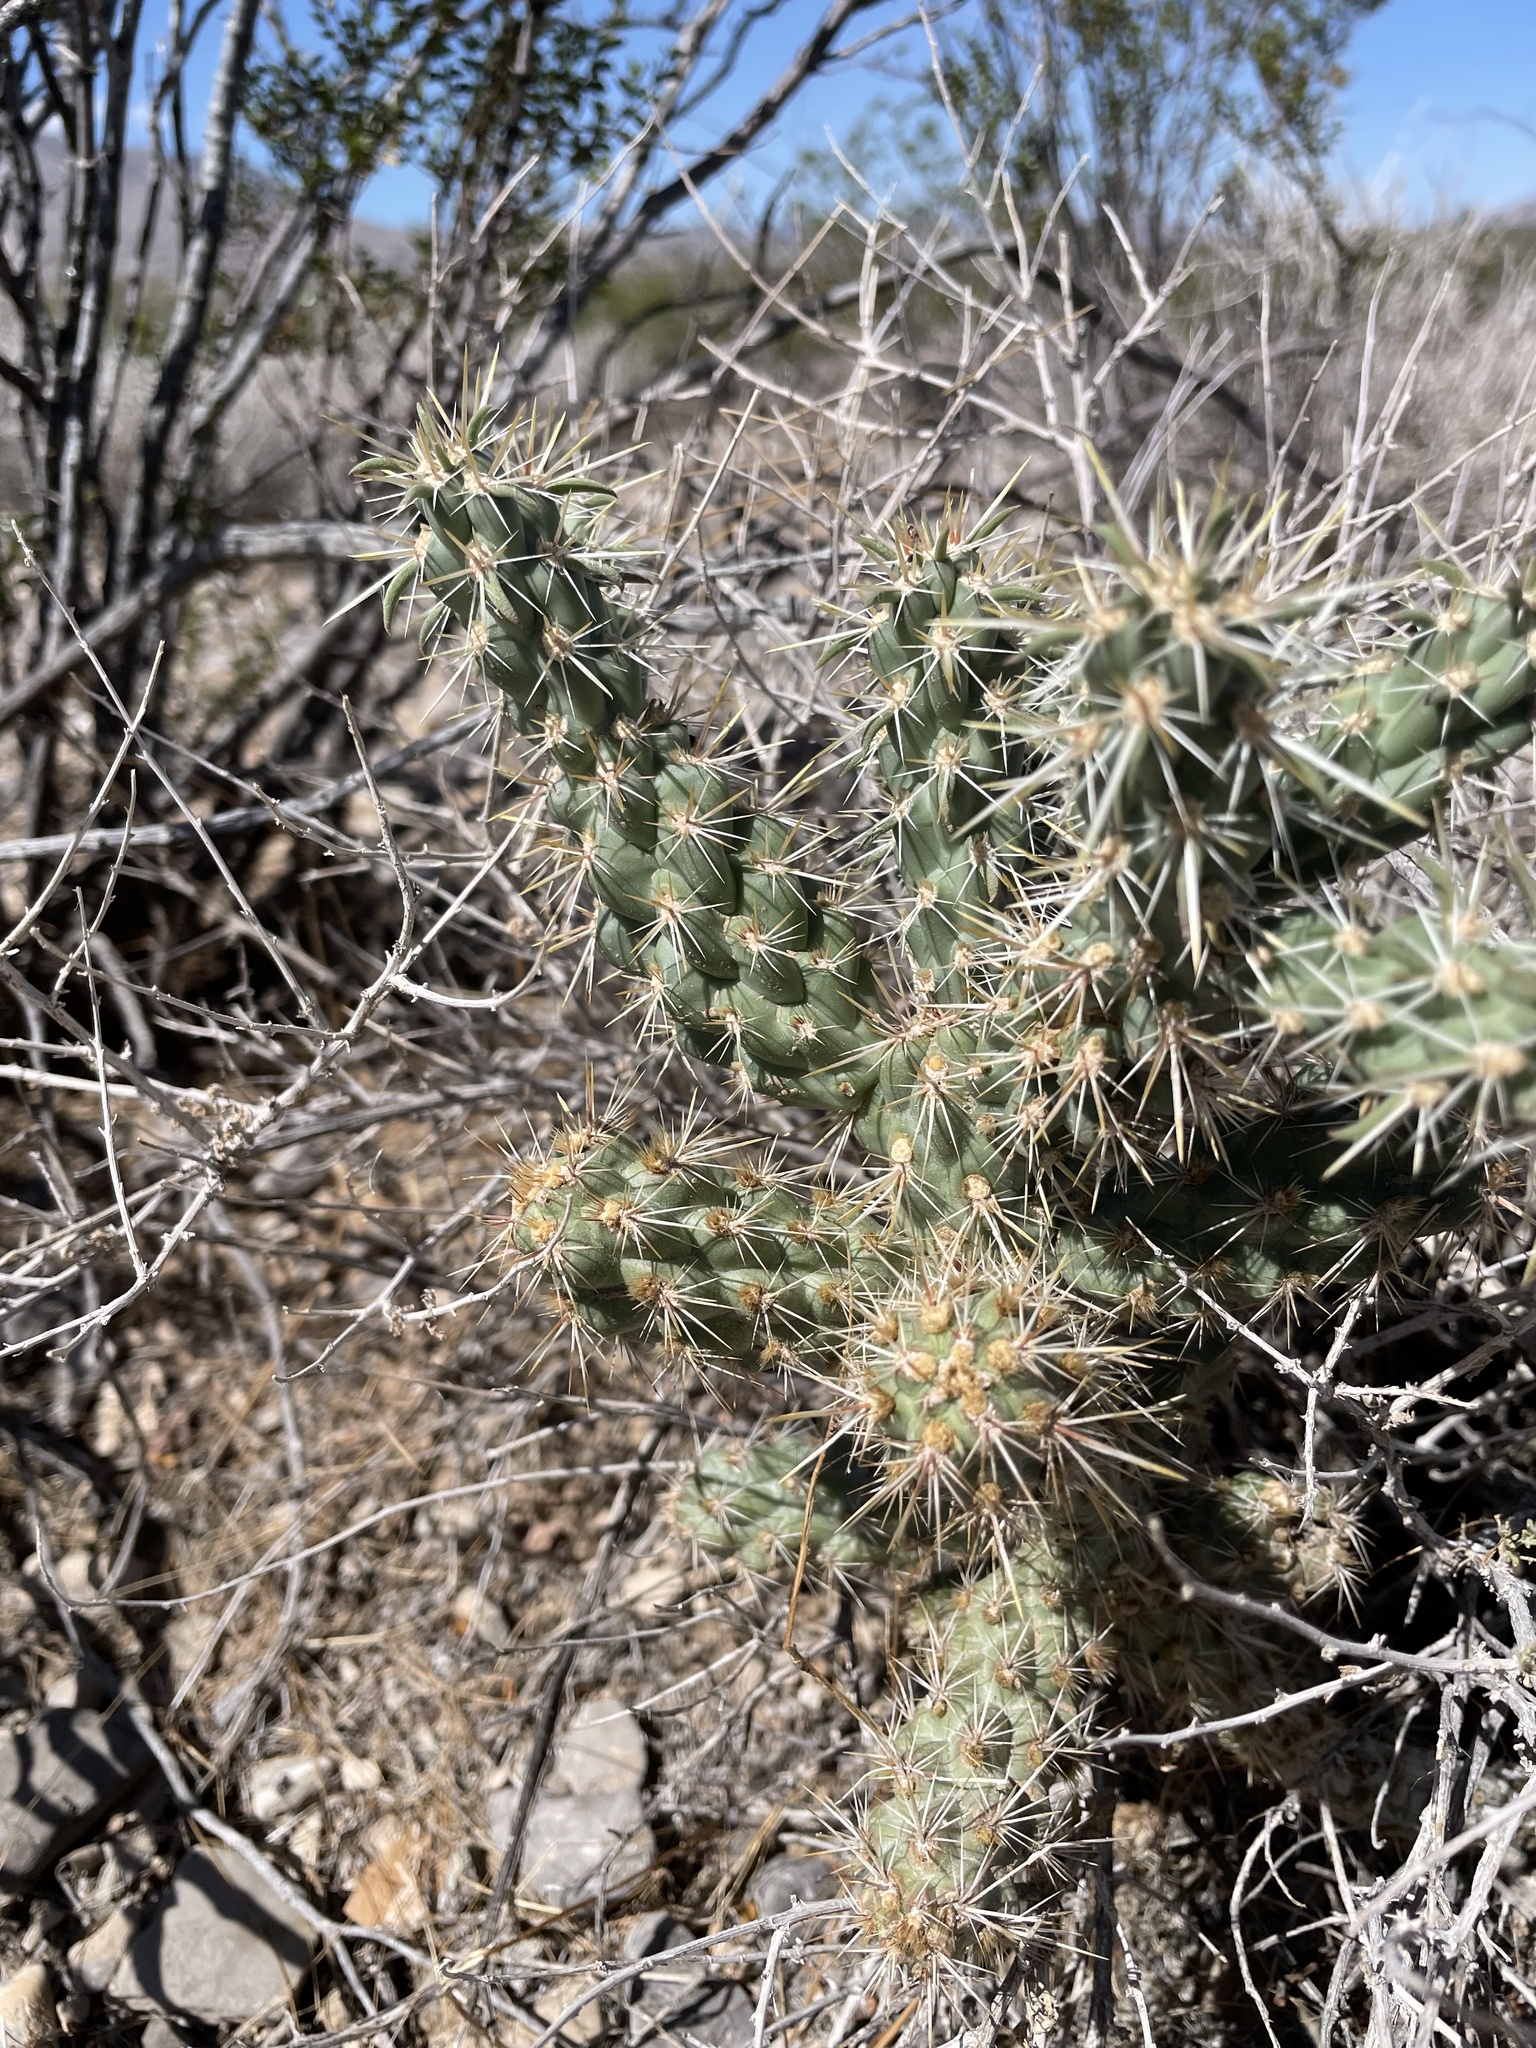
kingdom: Plantae
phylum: Tracheophyta
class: Magnoliopsida
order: Caryophyllales
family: Cactaceae
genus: Cylindropuntia
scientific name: Cylindropuntia echinocarpa
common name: Ground cholla
